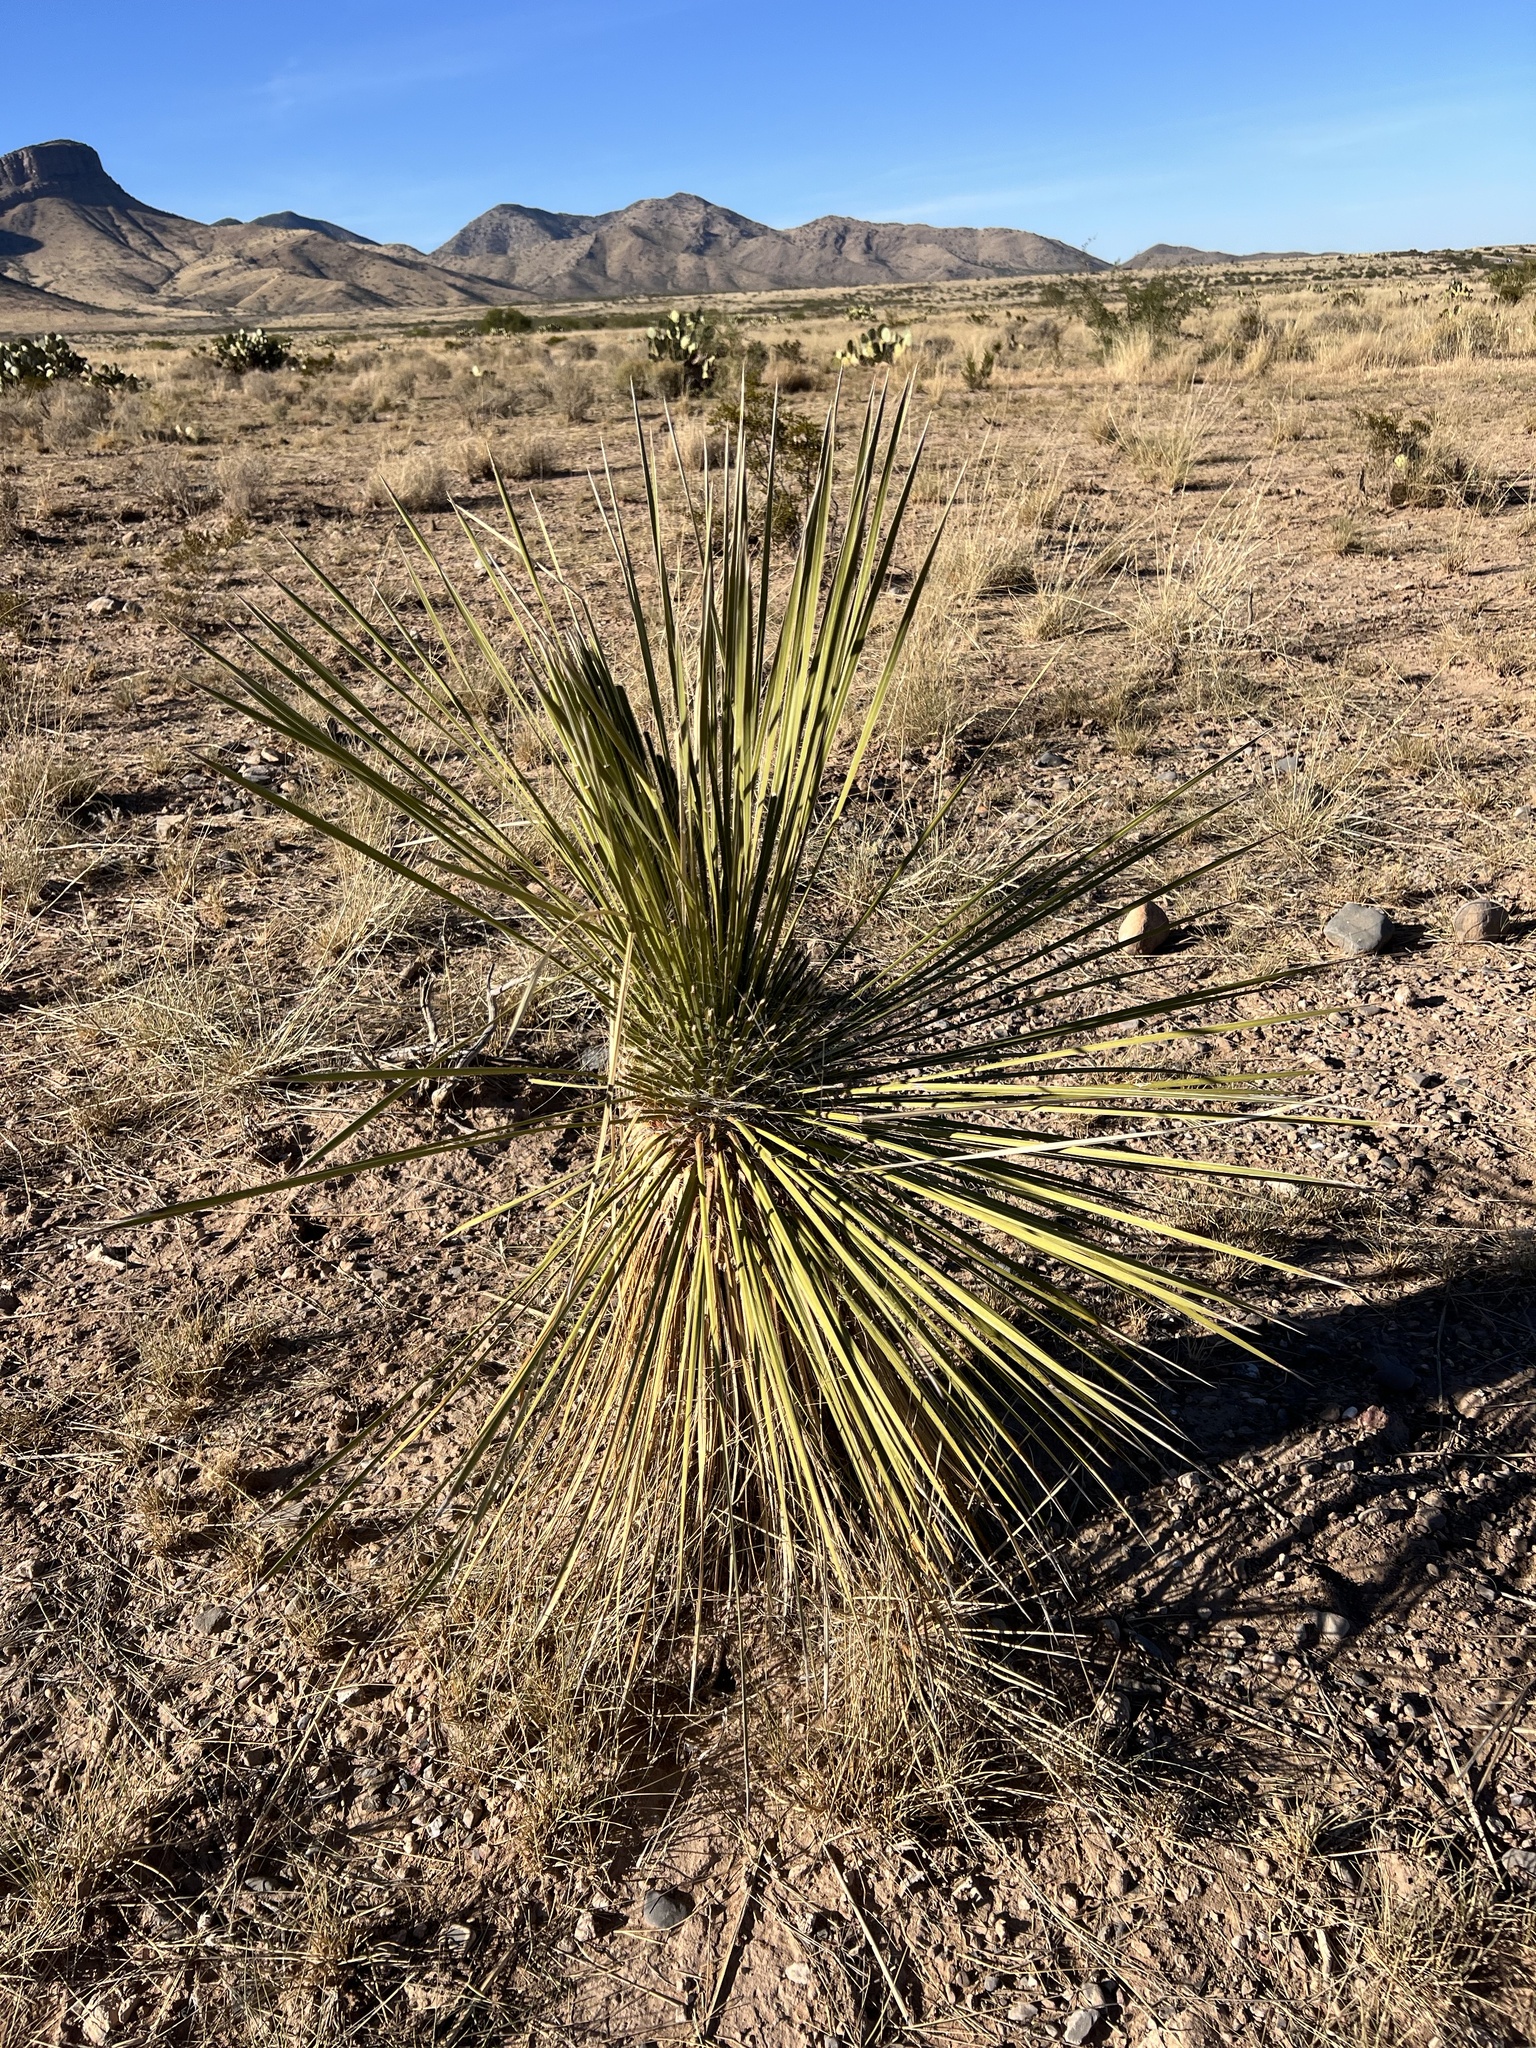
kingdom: Plantae
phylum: Tracheophyta
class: Liliopsida
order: Asparagales
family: Asparagaceae
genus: Yucca
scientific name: Yucca elata
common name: Palmella
